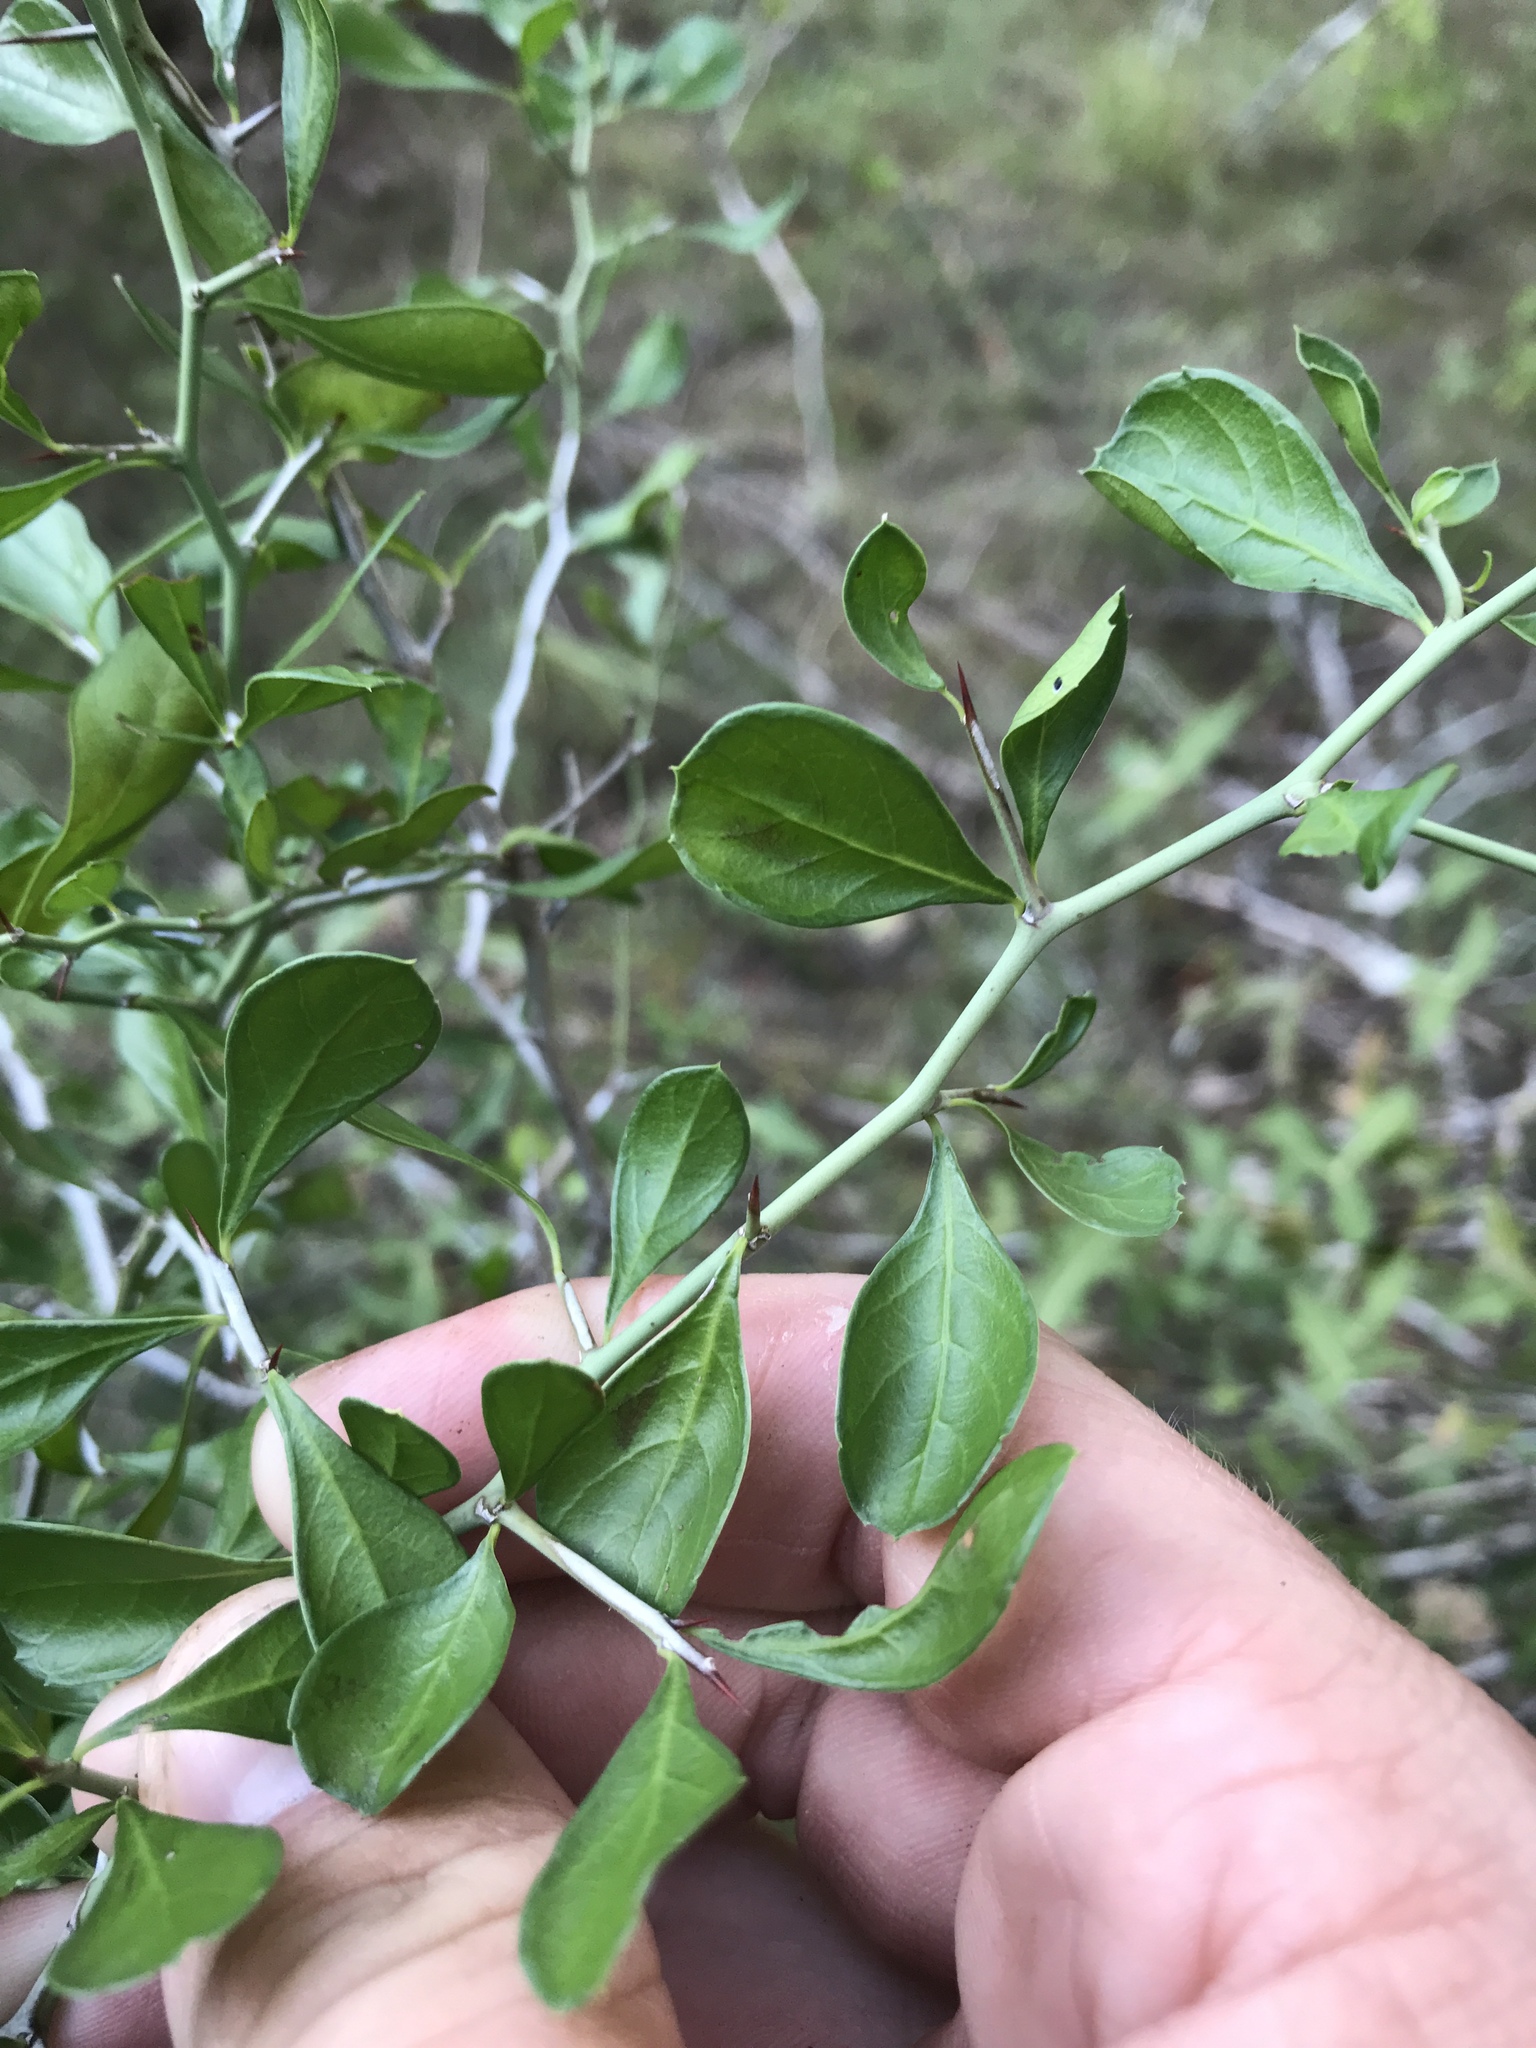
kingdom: Plantae
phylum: Tracheophyta
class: Magnoliopsida
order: Rosales
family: Rhamnaceae
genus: Condalia
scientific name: Condalia hookeri
